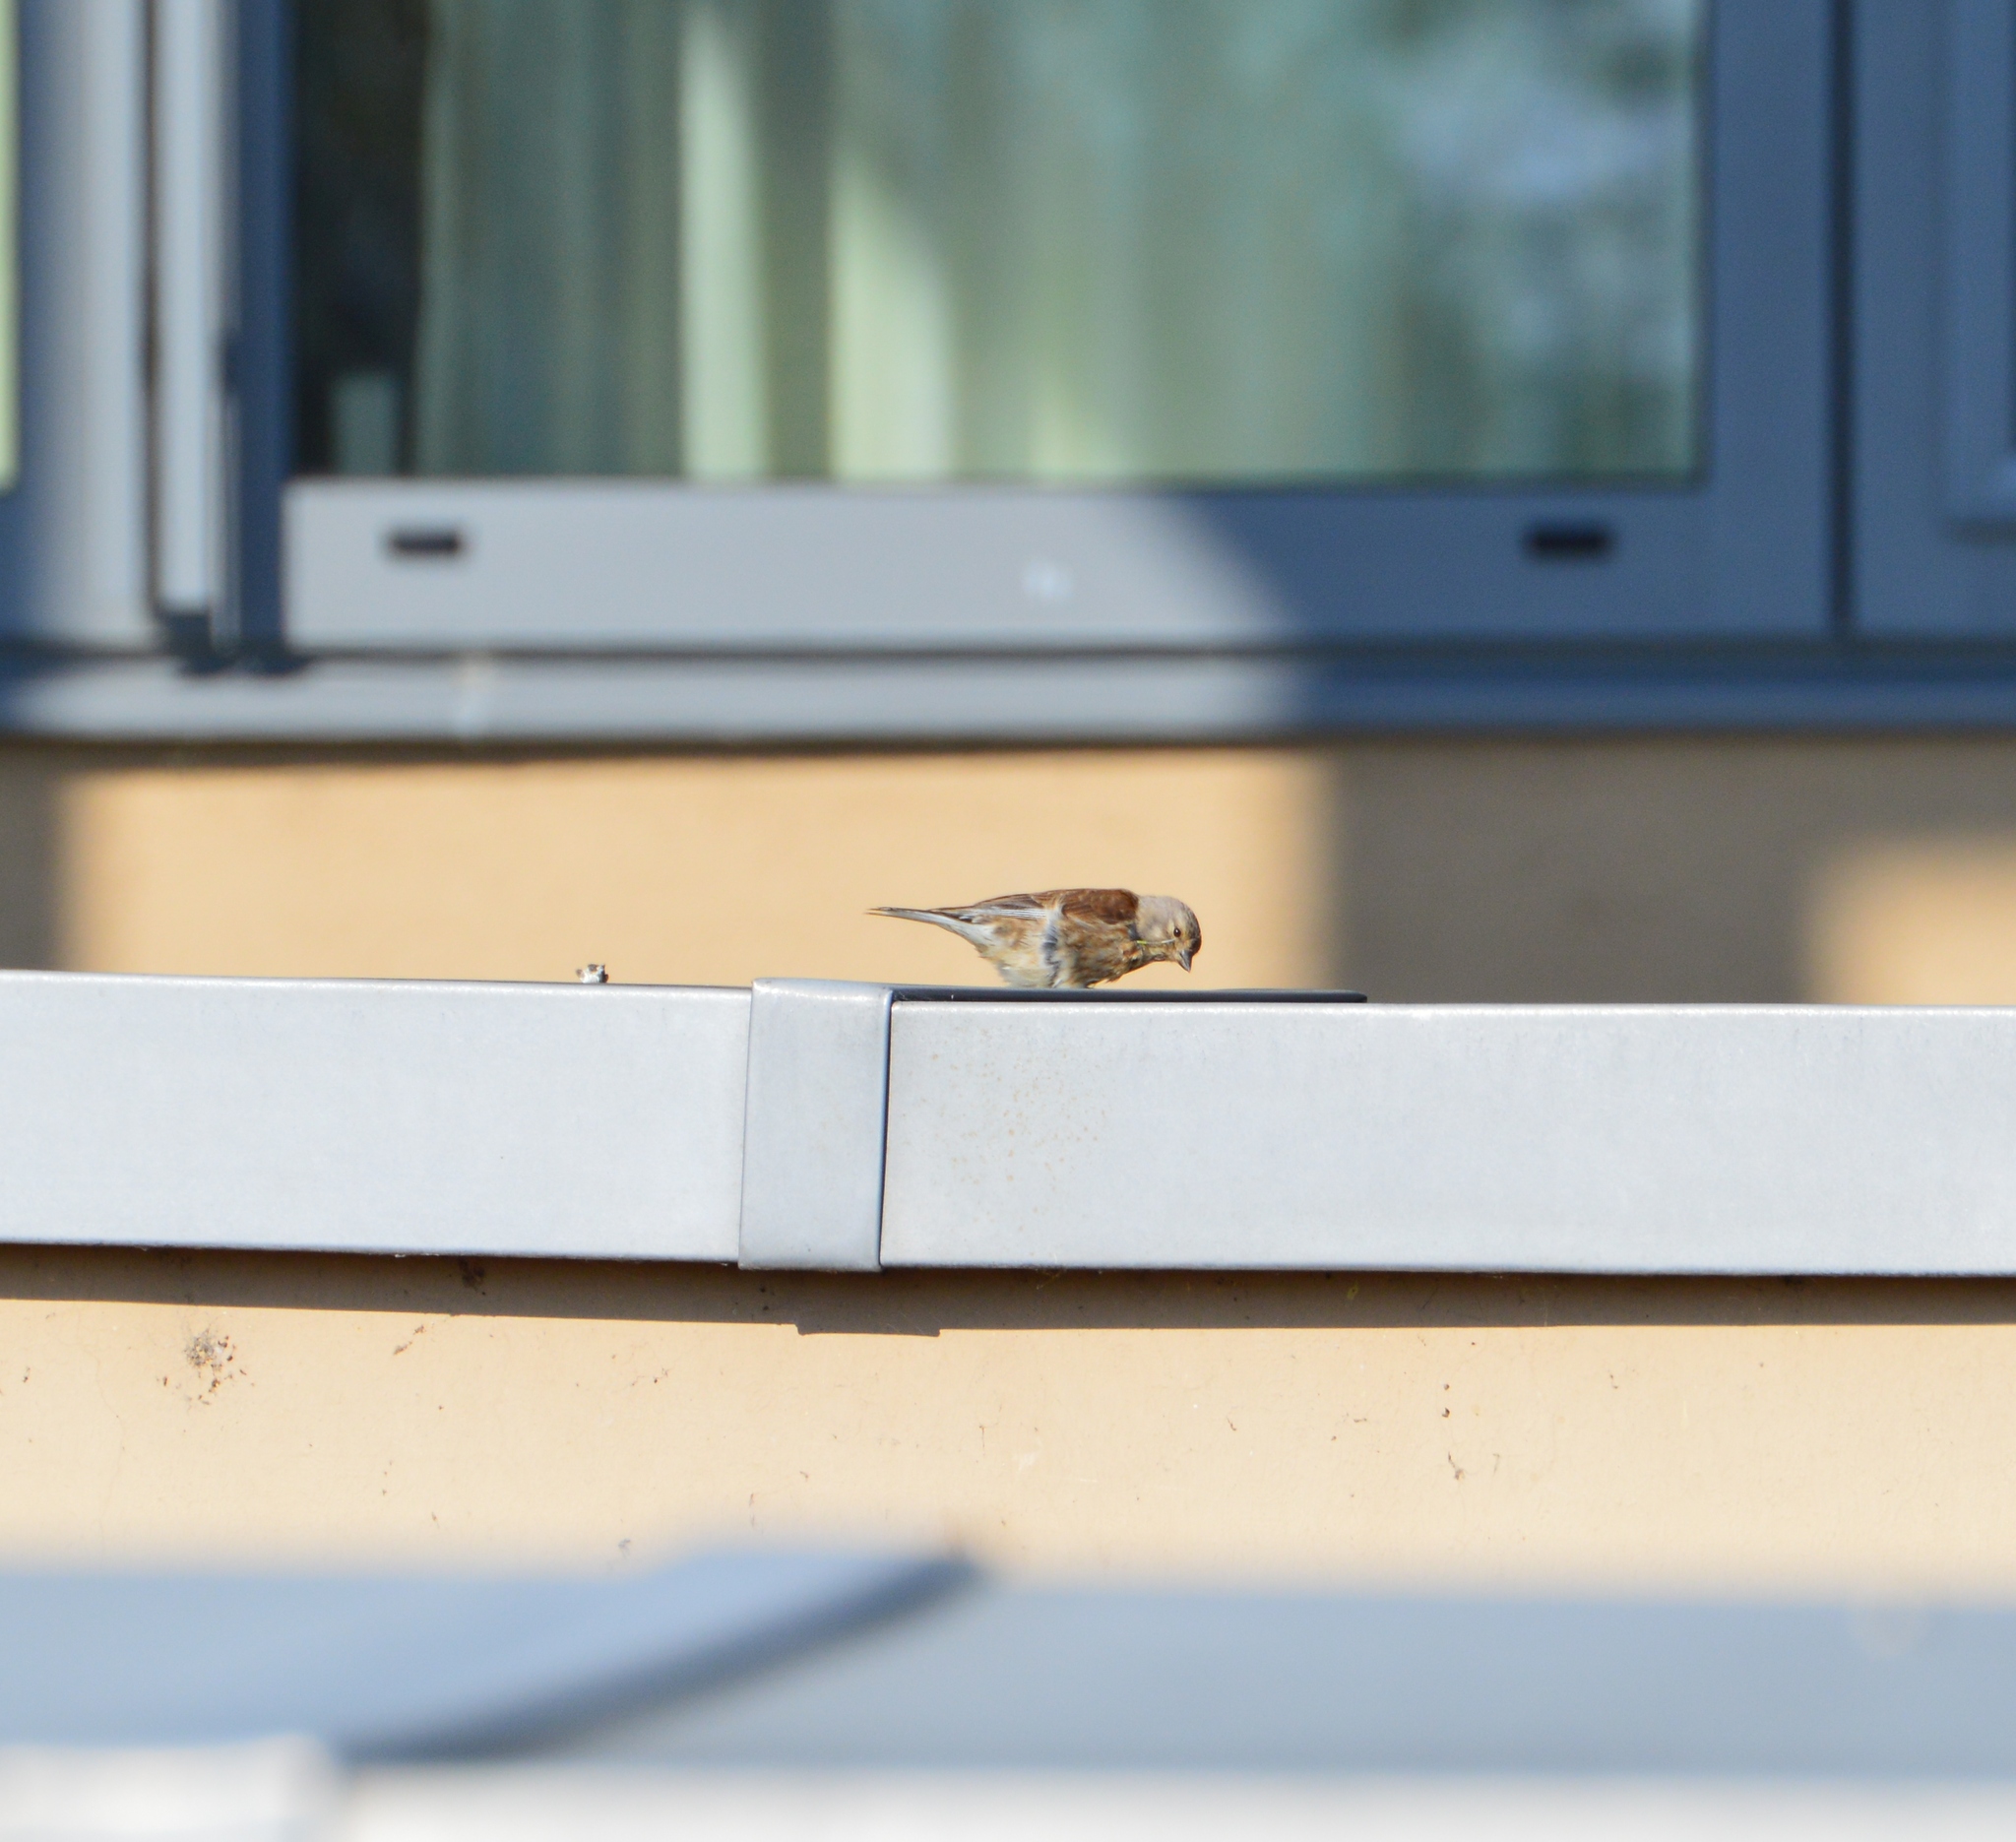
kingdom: Animalia
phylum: Chordata
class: Aves
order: Passeriformes
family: Fringillidae
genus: Linaria
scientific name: Linaria cannabina
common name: Common linnet
